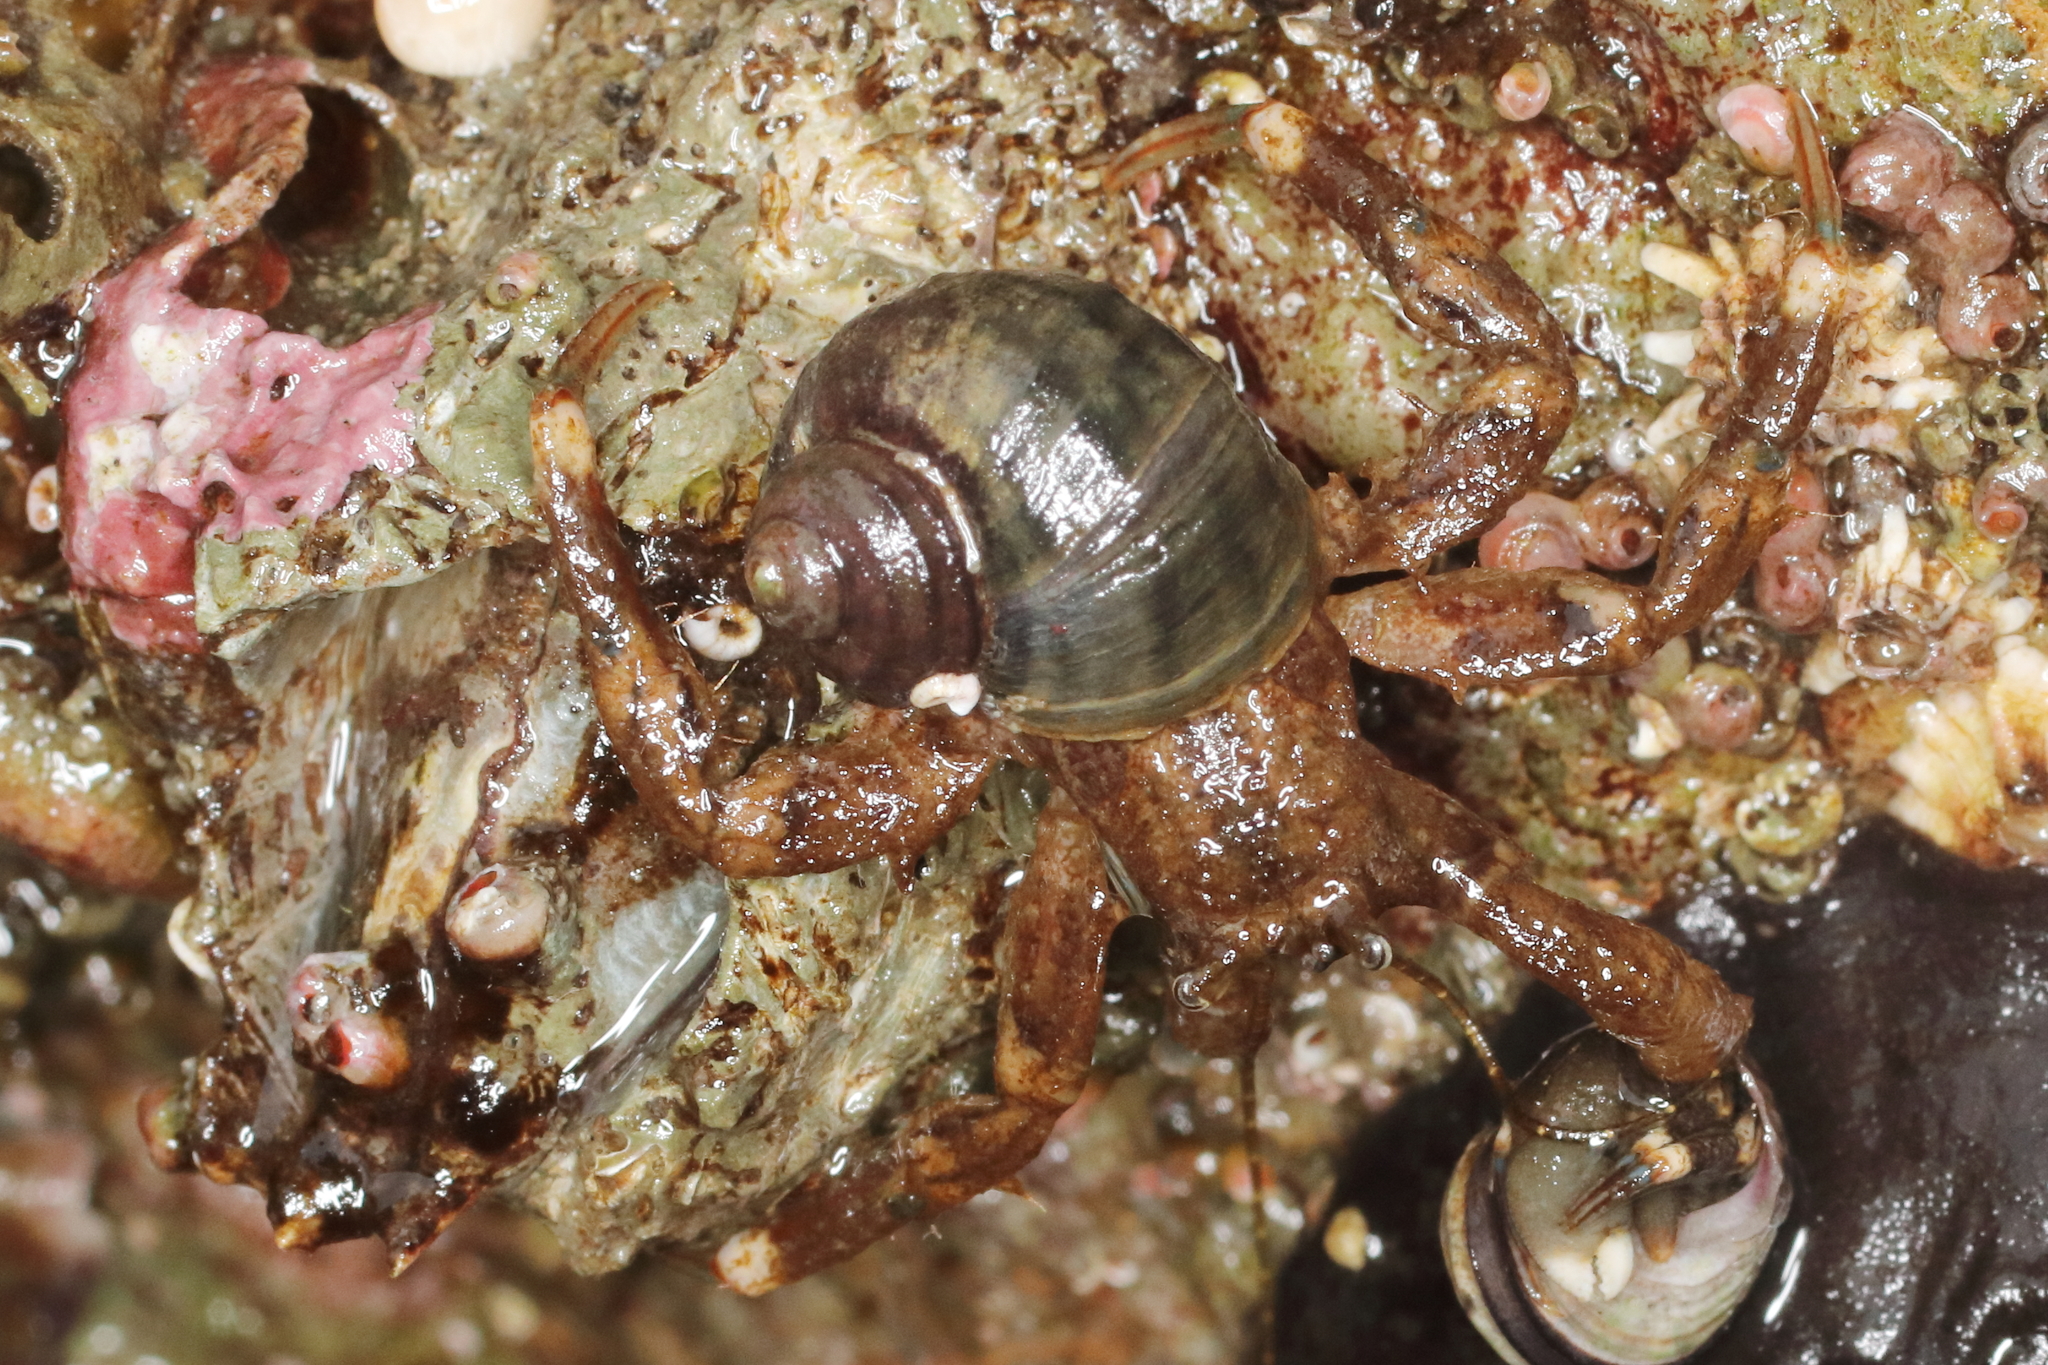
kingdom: Animalia
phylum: Arthropoda
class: Malacostraca
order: Decapoda
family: Paguridae
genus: Pagurus
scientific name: Pagurus hirsutiusculus
